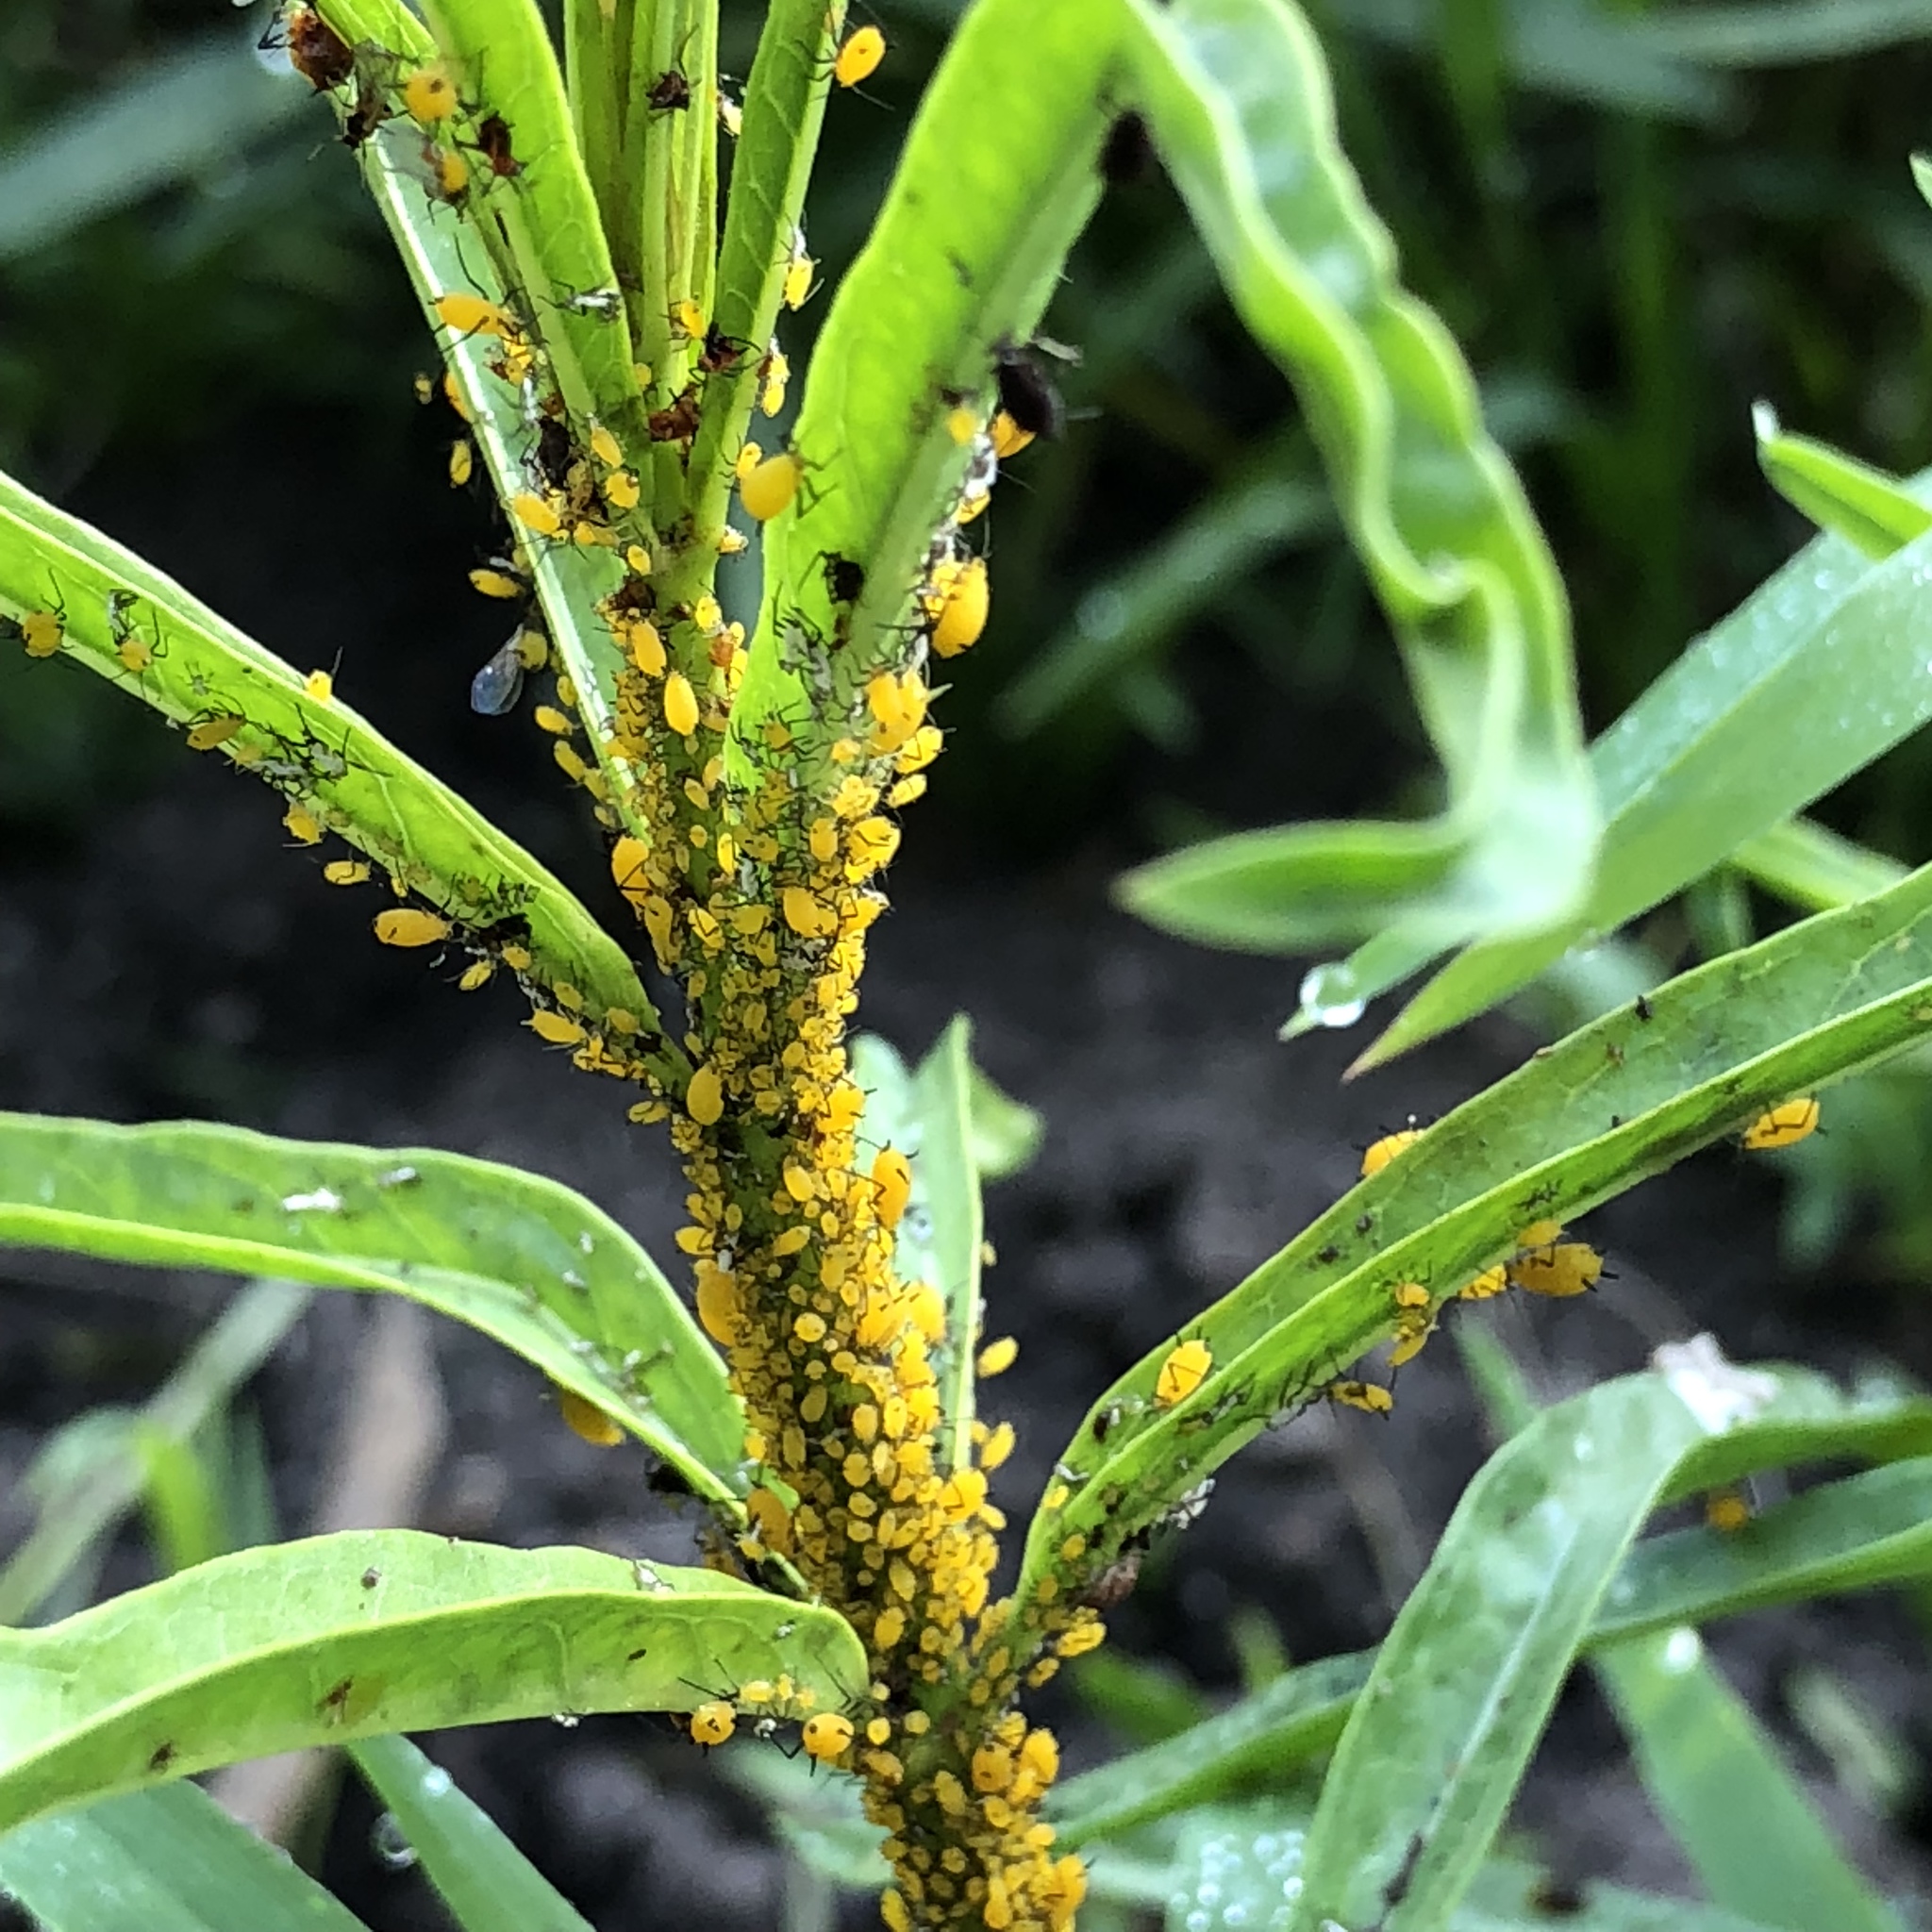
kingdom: Animalia
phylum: Arthropoda
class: Insecta
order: Hemiptera
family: Aphididae
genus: Aphis
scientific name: Aphis nerii
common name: Oleander aphid
